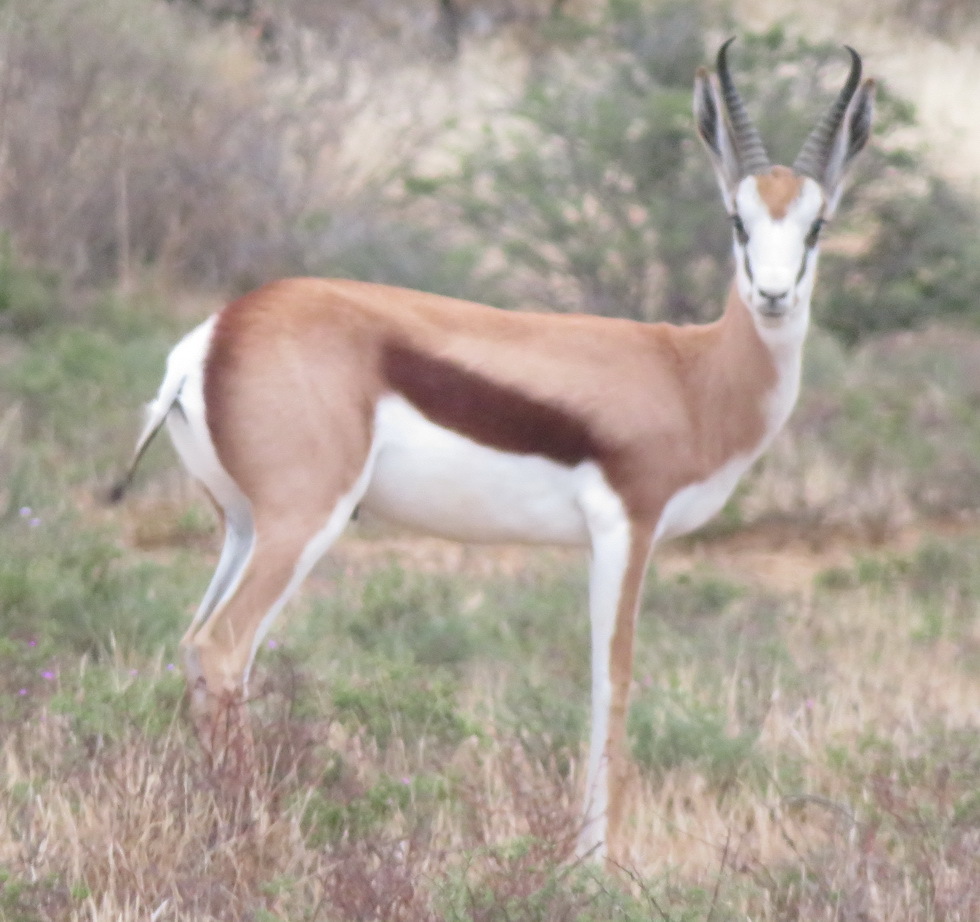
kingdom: Animalia
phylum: Chordata
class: Mammalia
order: Artiodactyla
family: Bovidae
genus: Antidorcas
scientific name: Antidorcas marsupialis
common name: Springbok
